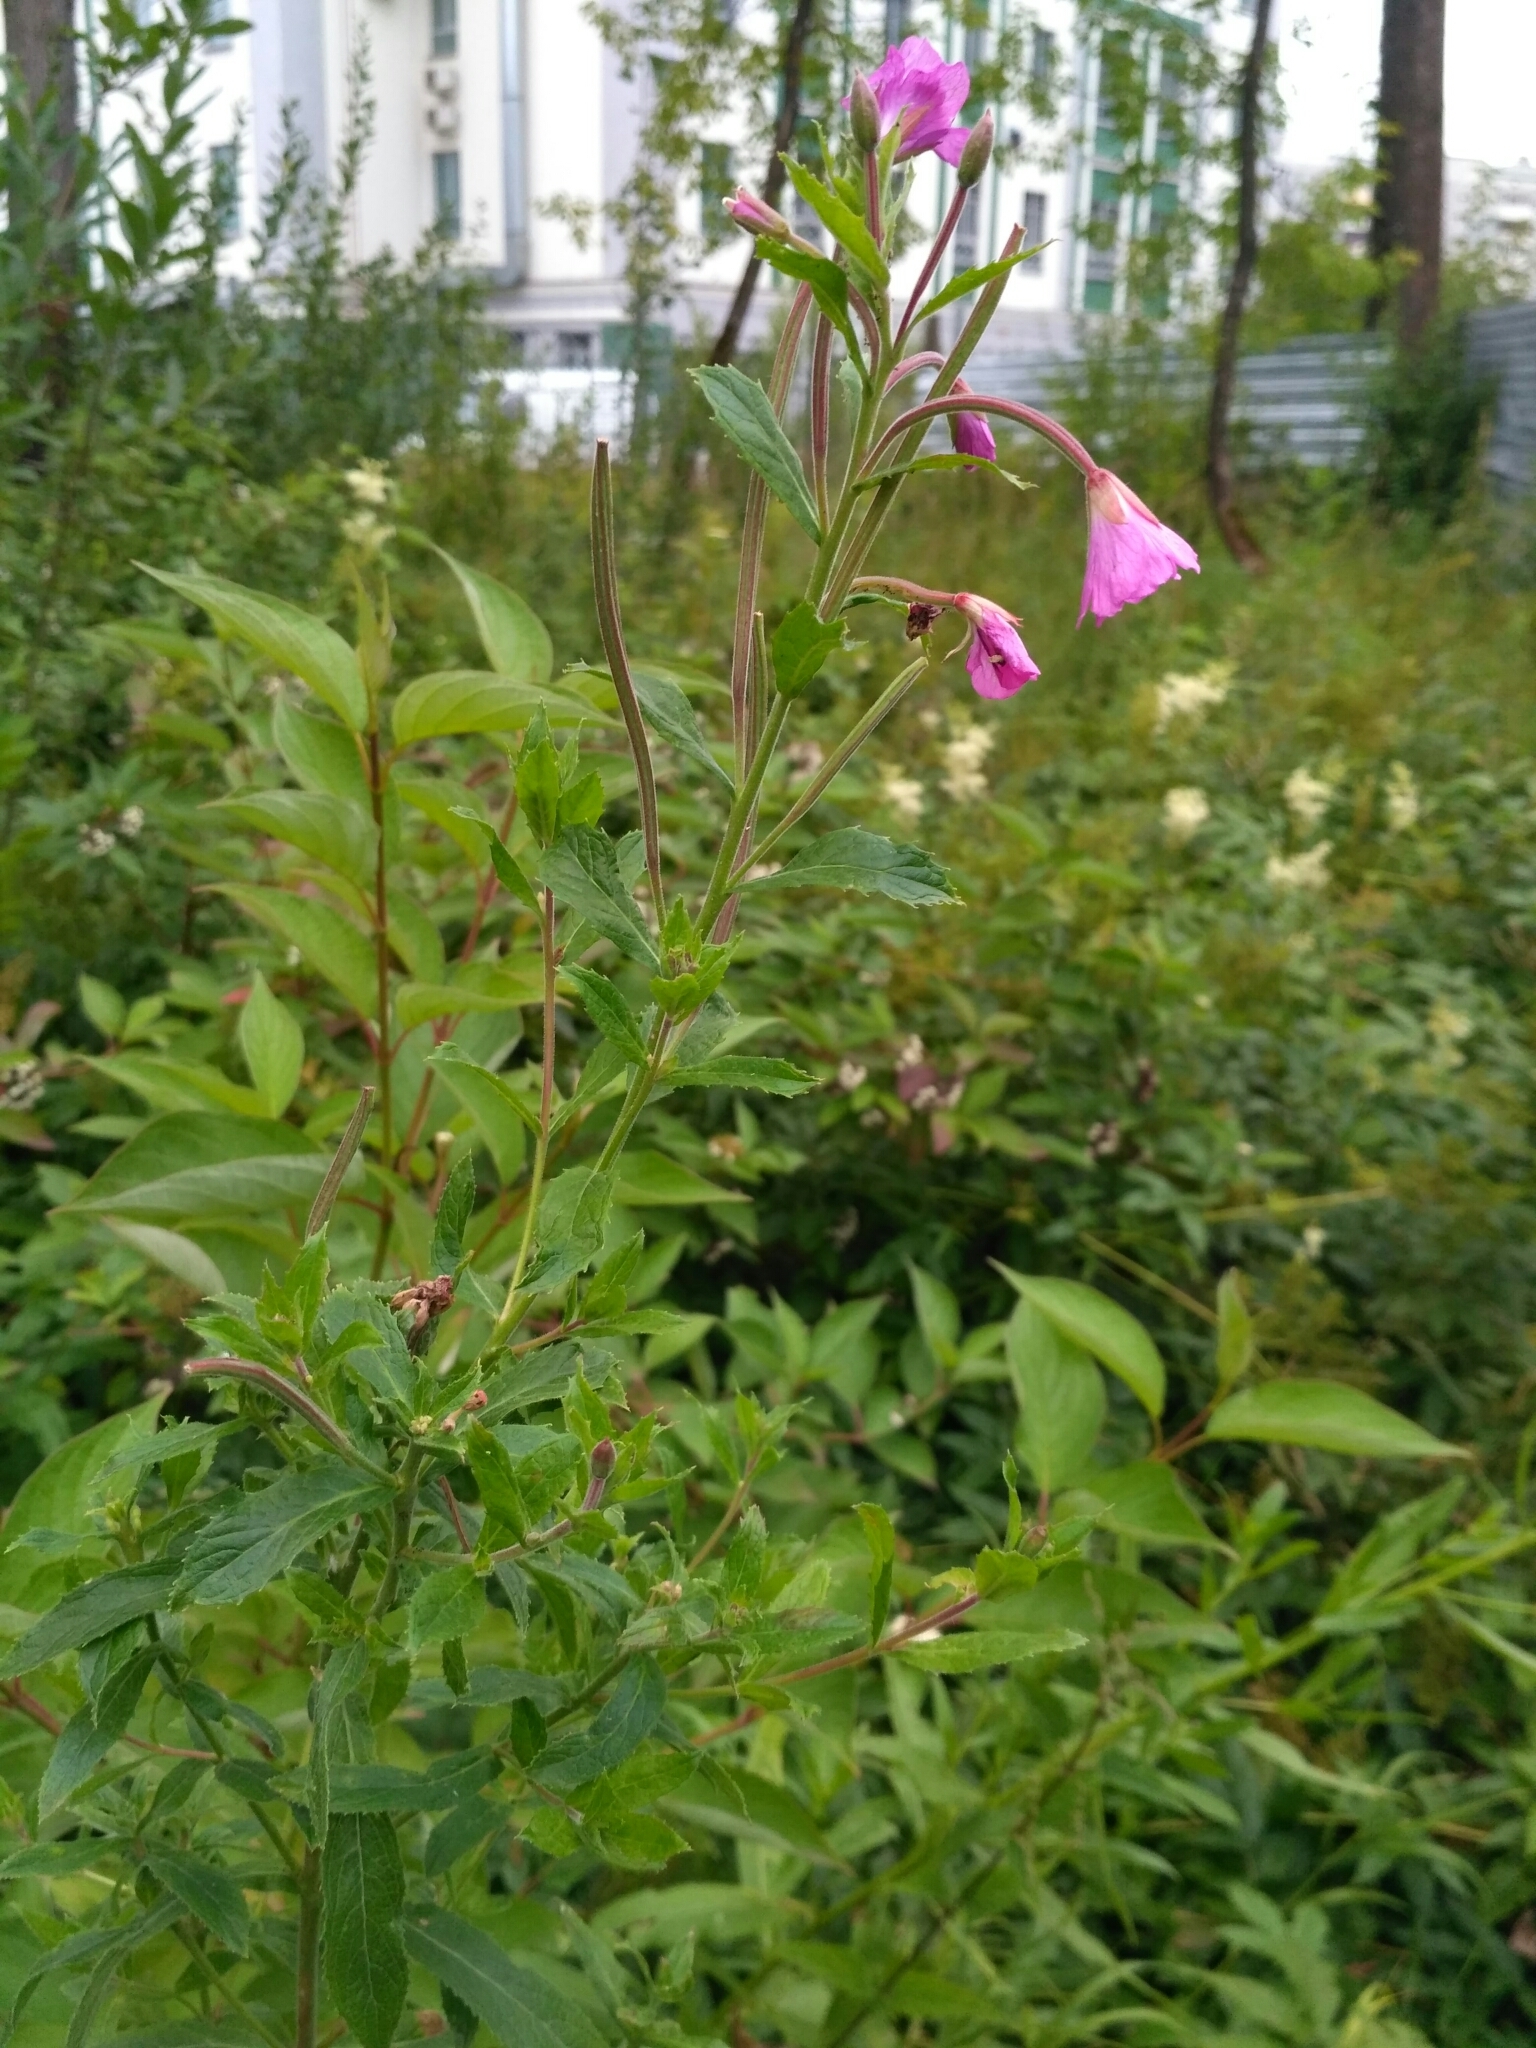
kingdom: Plantae
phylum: Tracheophyta
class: Magnoliopsida
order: Myrtales
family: Onagraceae
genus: Epilobium
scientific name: Epilobium hirsutum
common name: Great willowherb
